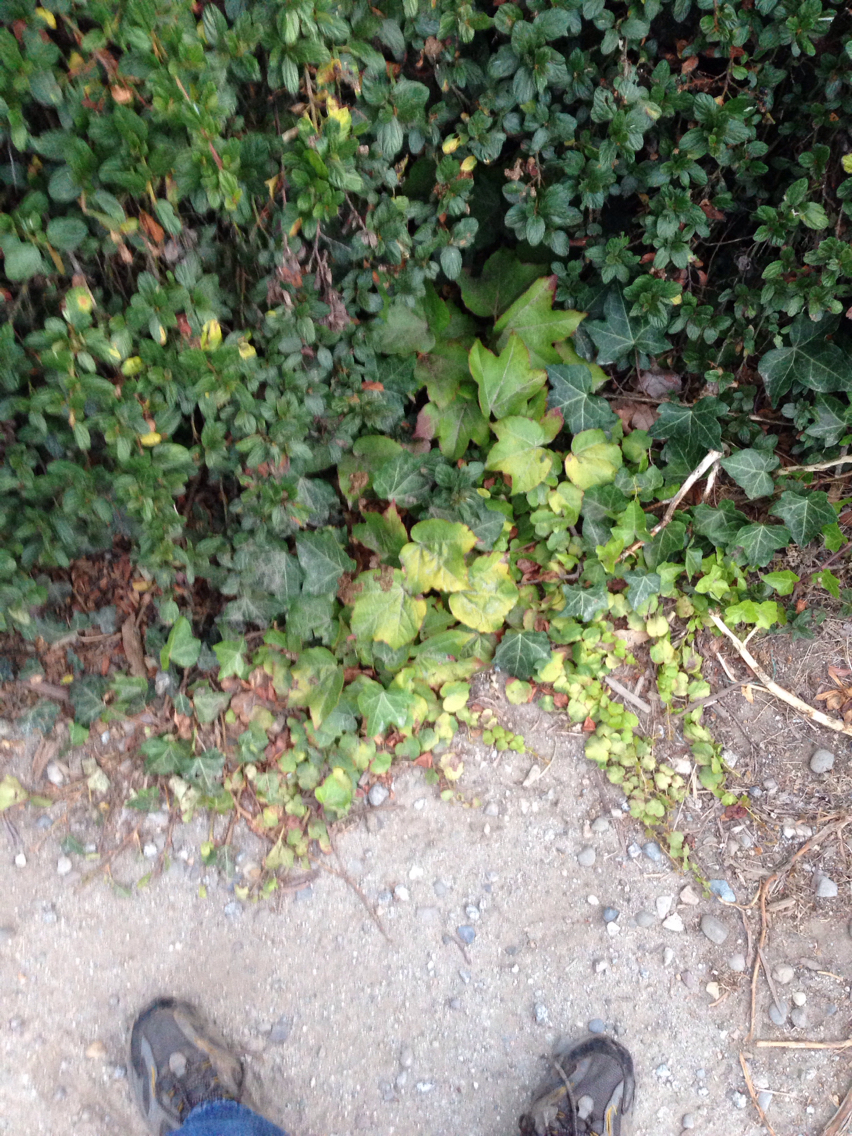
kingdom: Plantae
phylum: Tracheophyta
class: Magnoliopsida
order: Apiales
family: Araliaceae
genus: Hedera
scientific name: Hedera helix
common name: Ivy
